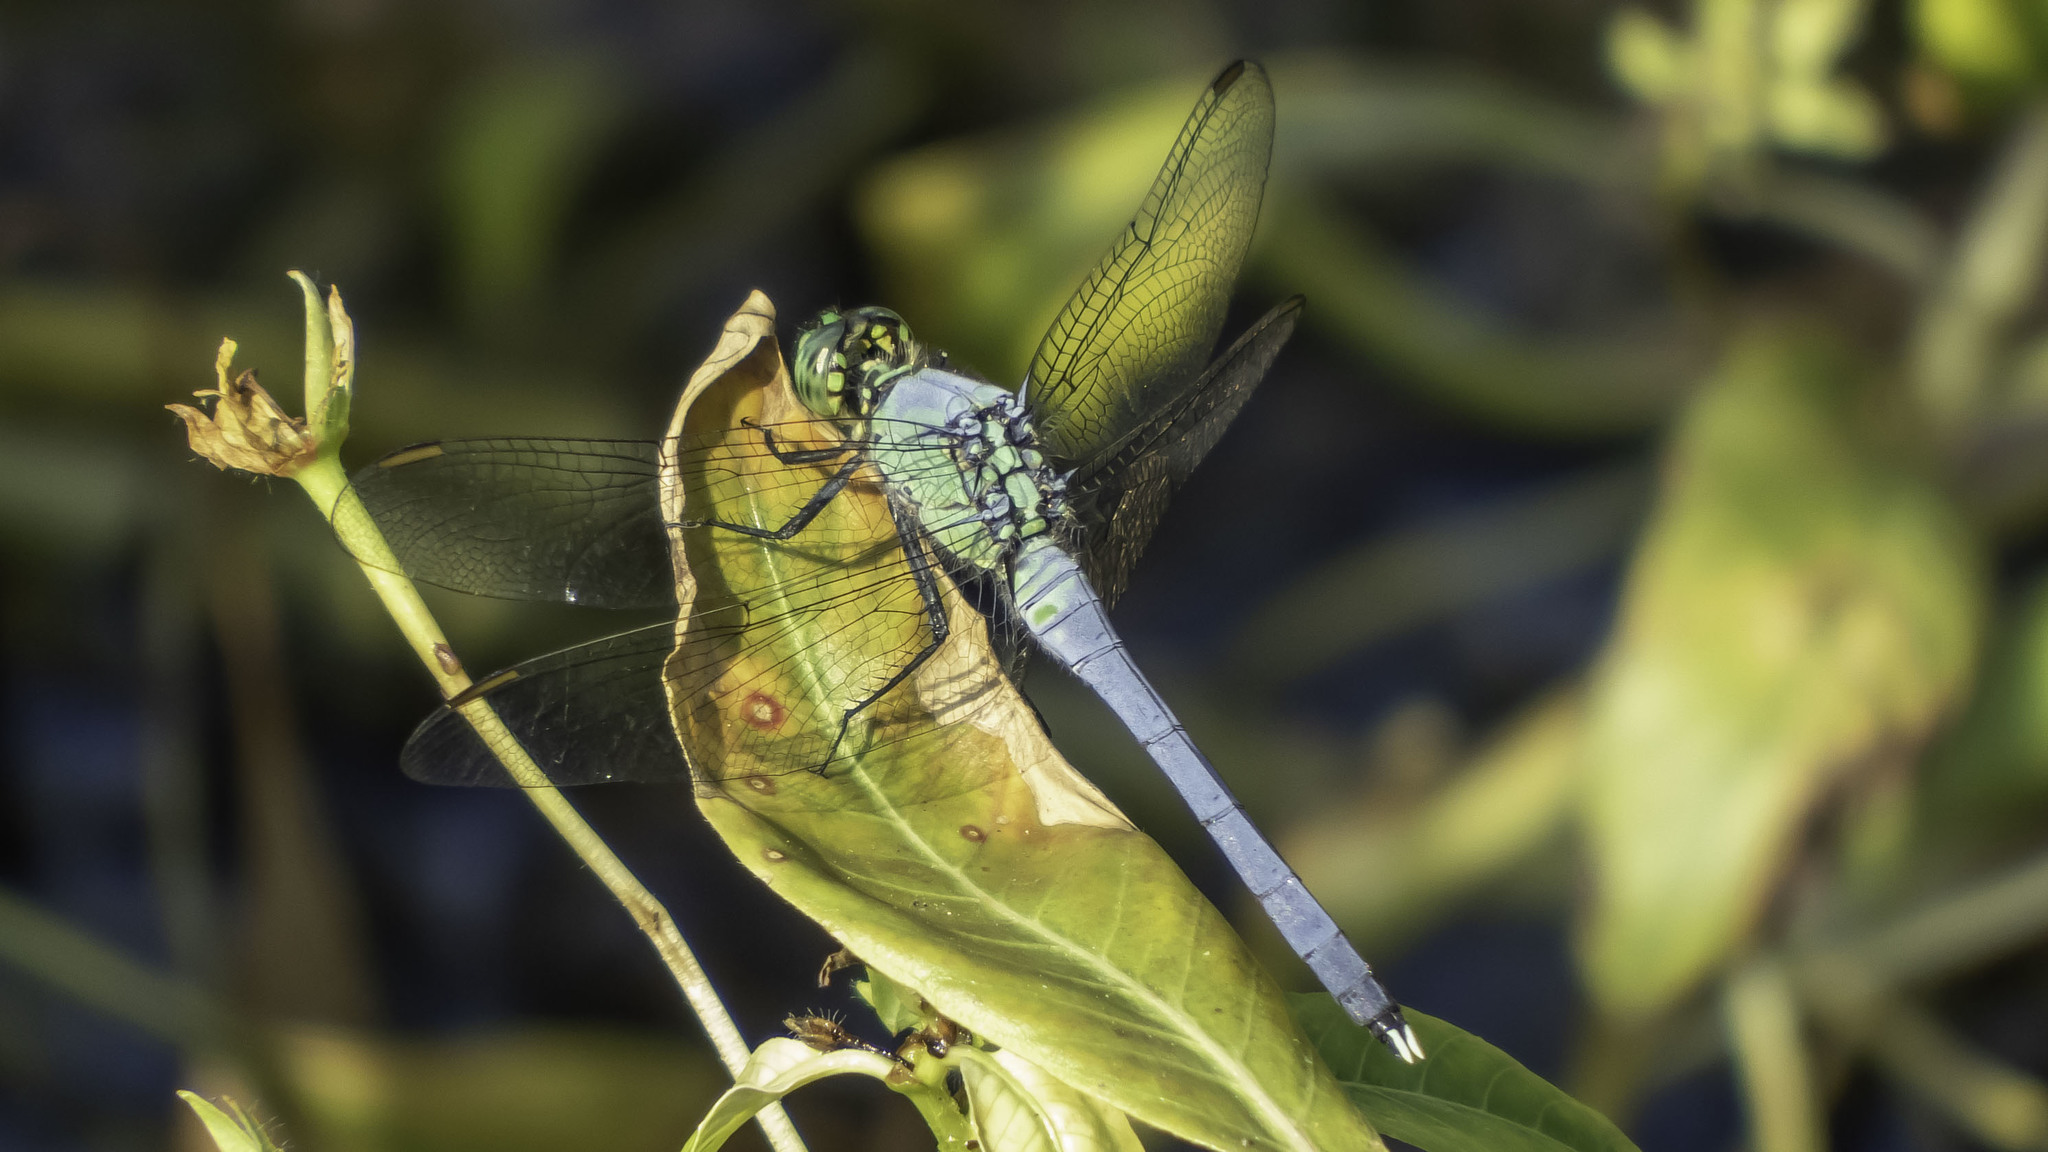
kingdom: Animalia
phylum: Arthropoda
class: Insecta
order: Odonata
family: Libellulidae
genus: Erythemis
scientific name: Erythemis simplicicollis
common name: Eastern pondhawk
